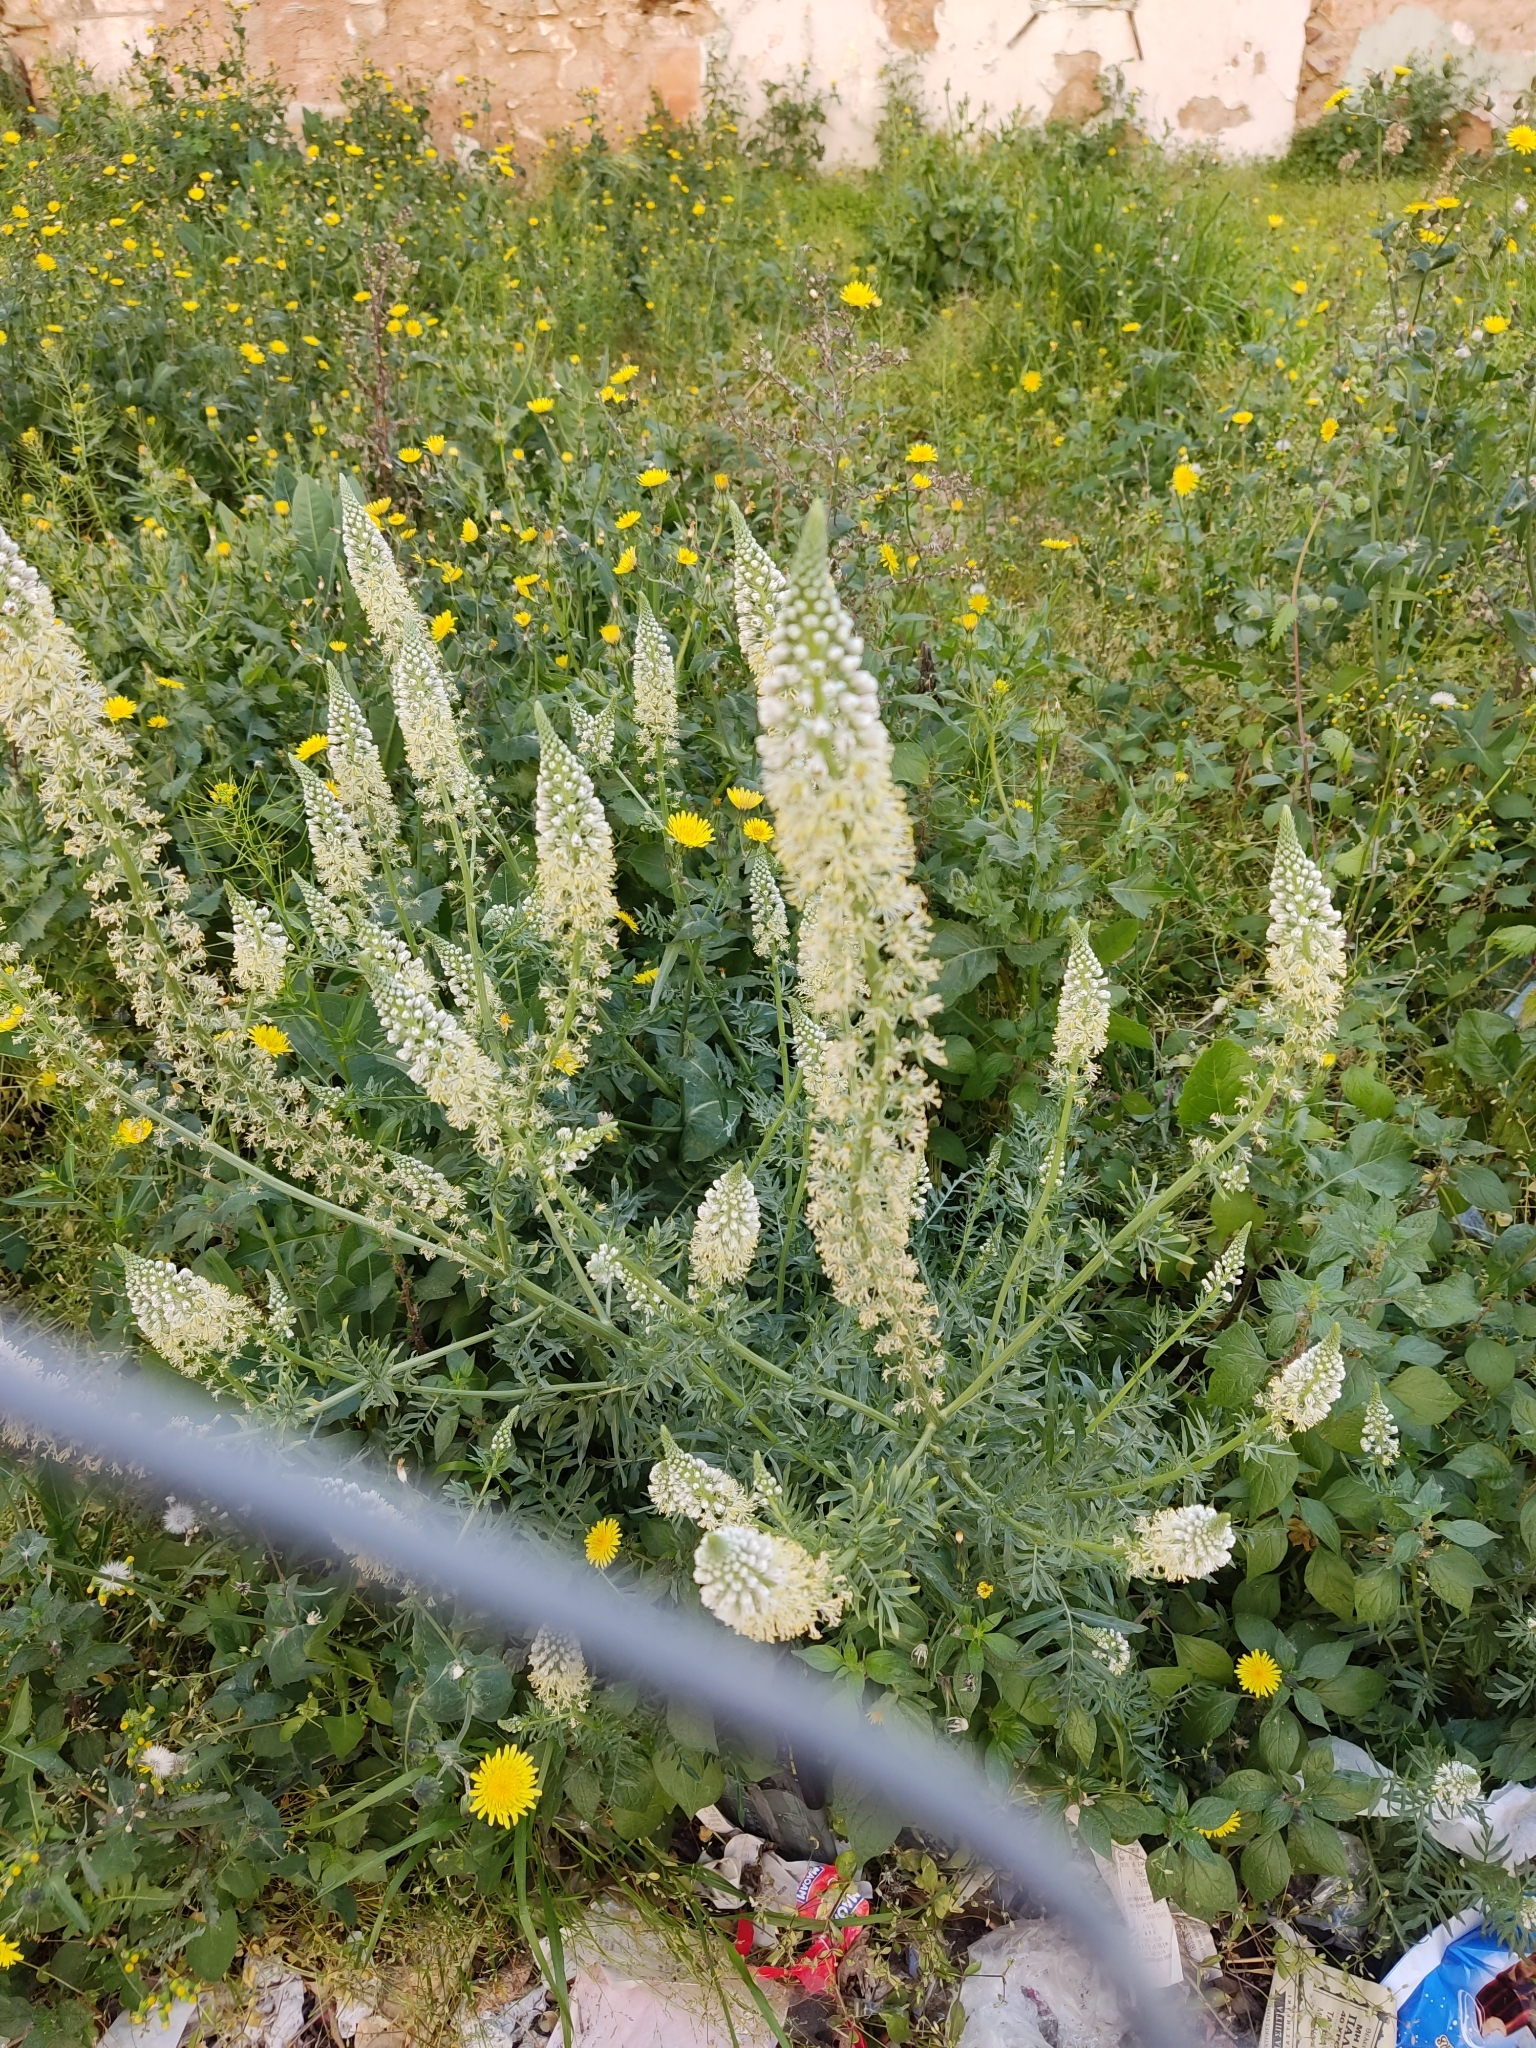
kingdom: Plantae
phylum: Tracheophyta
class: Magnoliopsida
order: Brassicales
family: Resedaceae
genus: Reseda
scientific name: Reseda alba
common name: White mignonette
